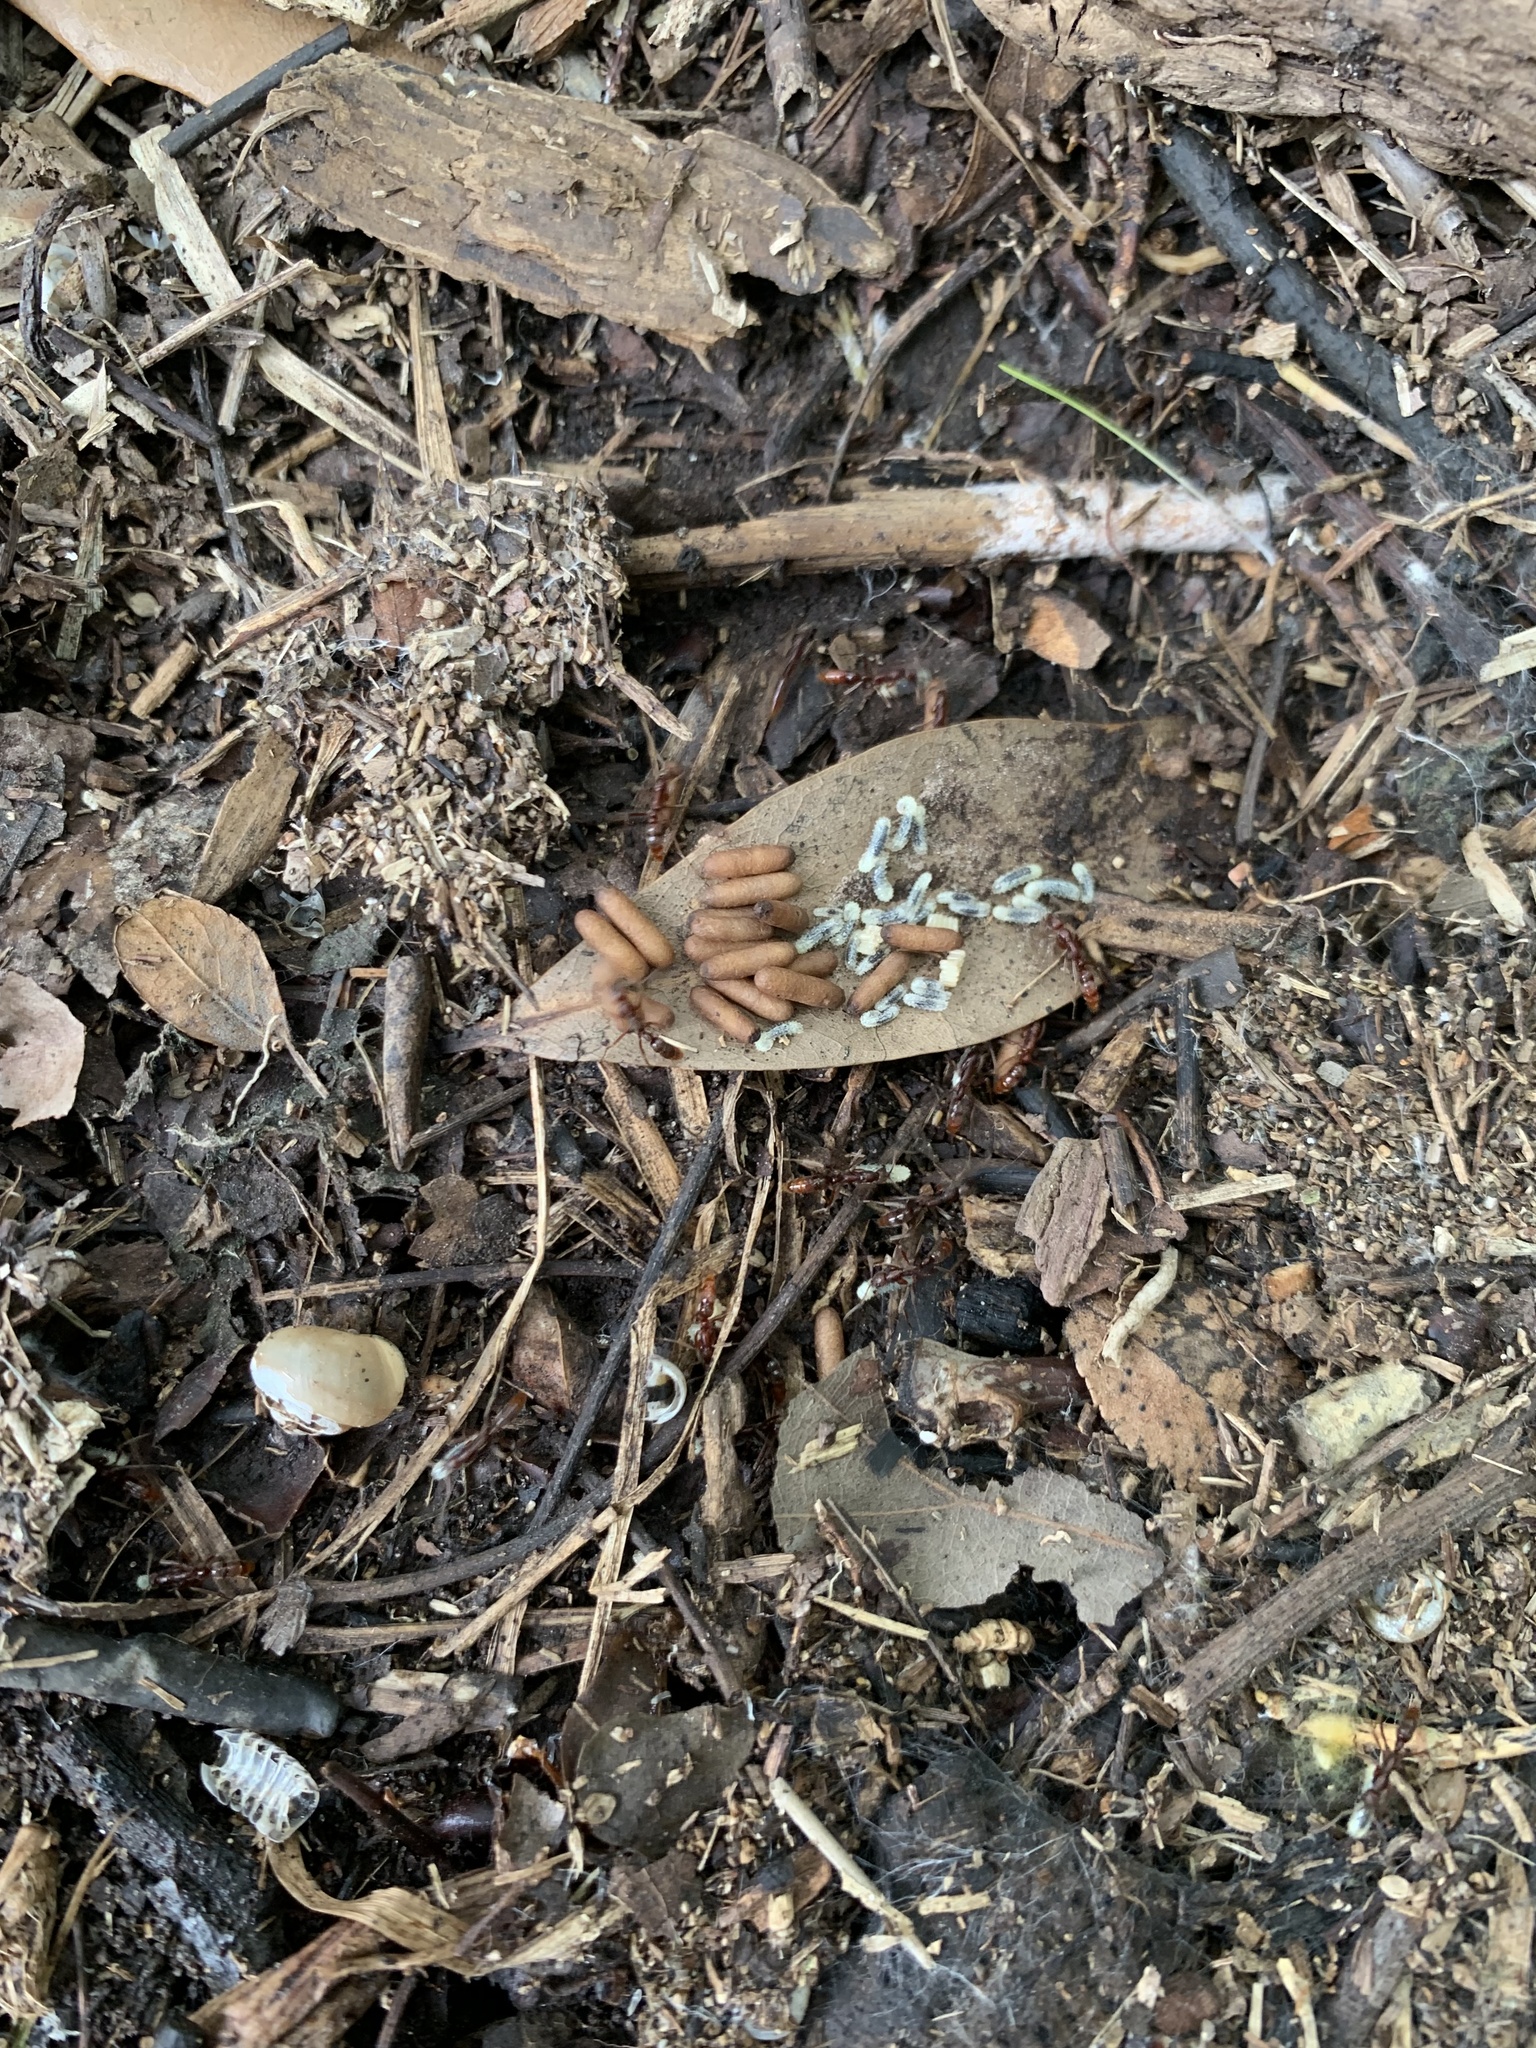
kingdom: Animalia
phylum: Arthropoda
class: Insecta
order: Hymenoptera
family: Formicidae
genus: Leptogenys
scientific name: Leptogenys elongata
